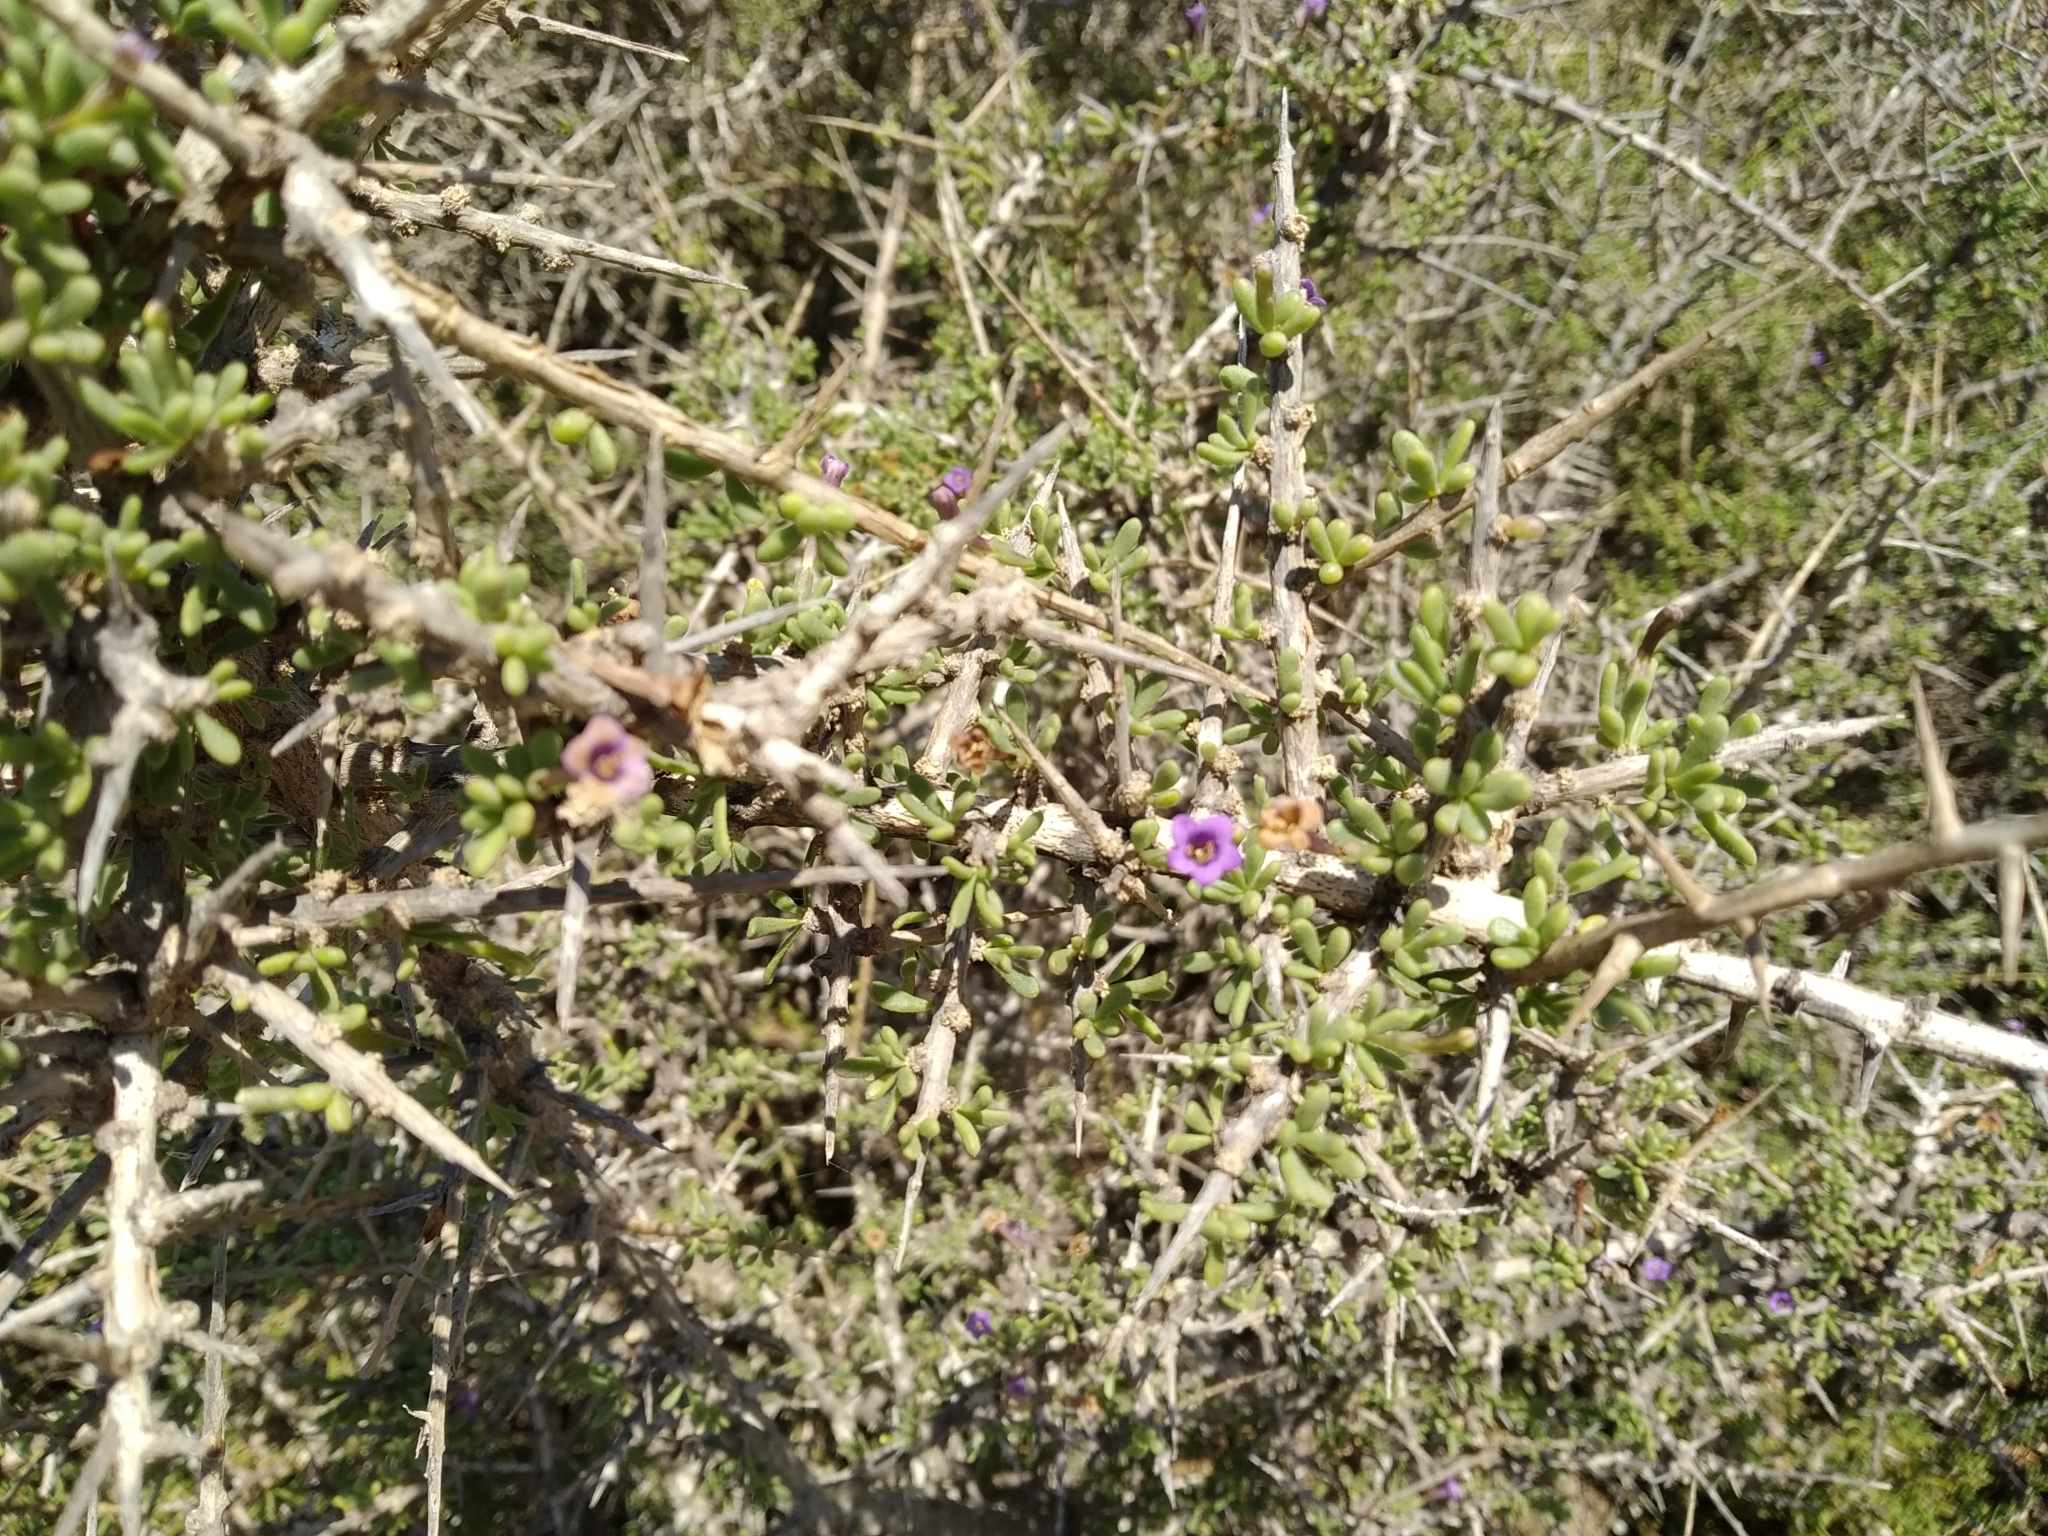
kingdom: Plantae
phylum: Tracheophyta
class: Magnoliopsida
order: Solanales
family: Solanaceae
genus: Lycium
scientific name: Lycium intricatum
